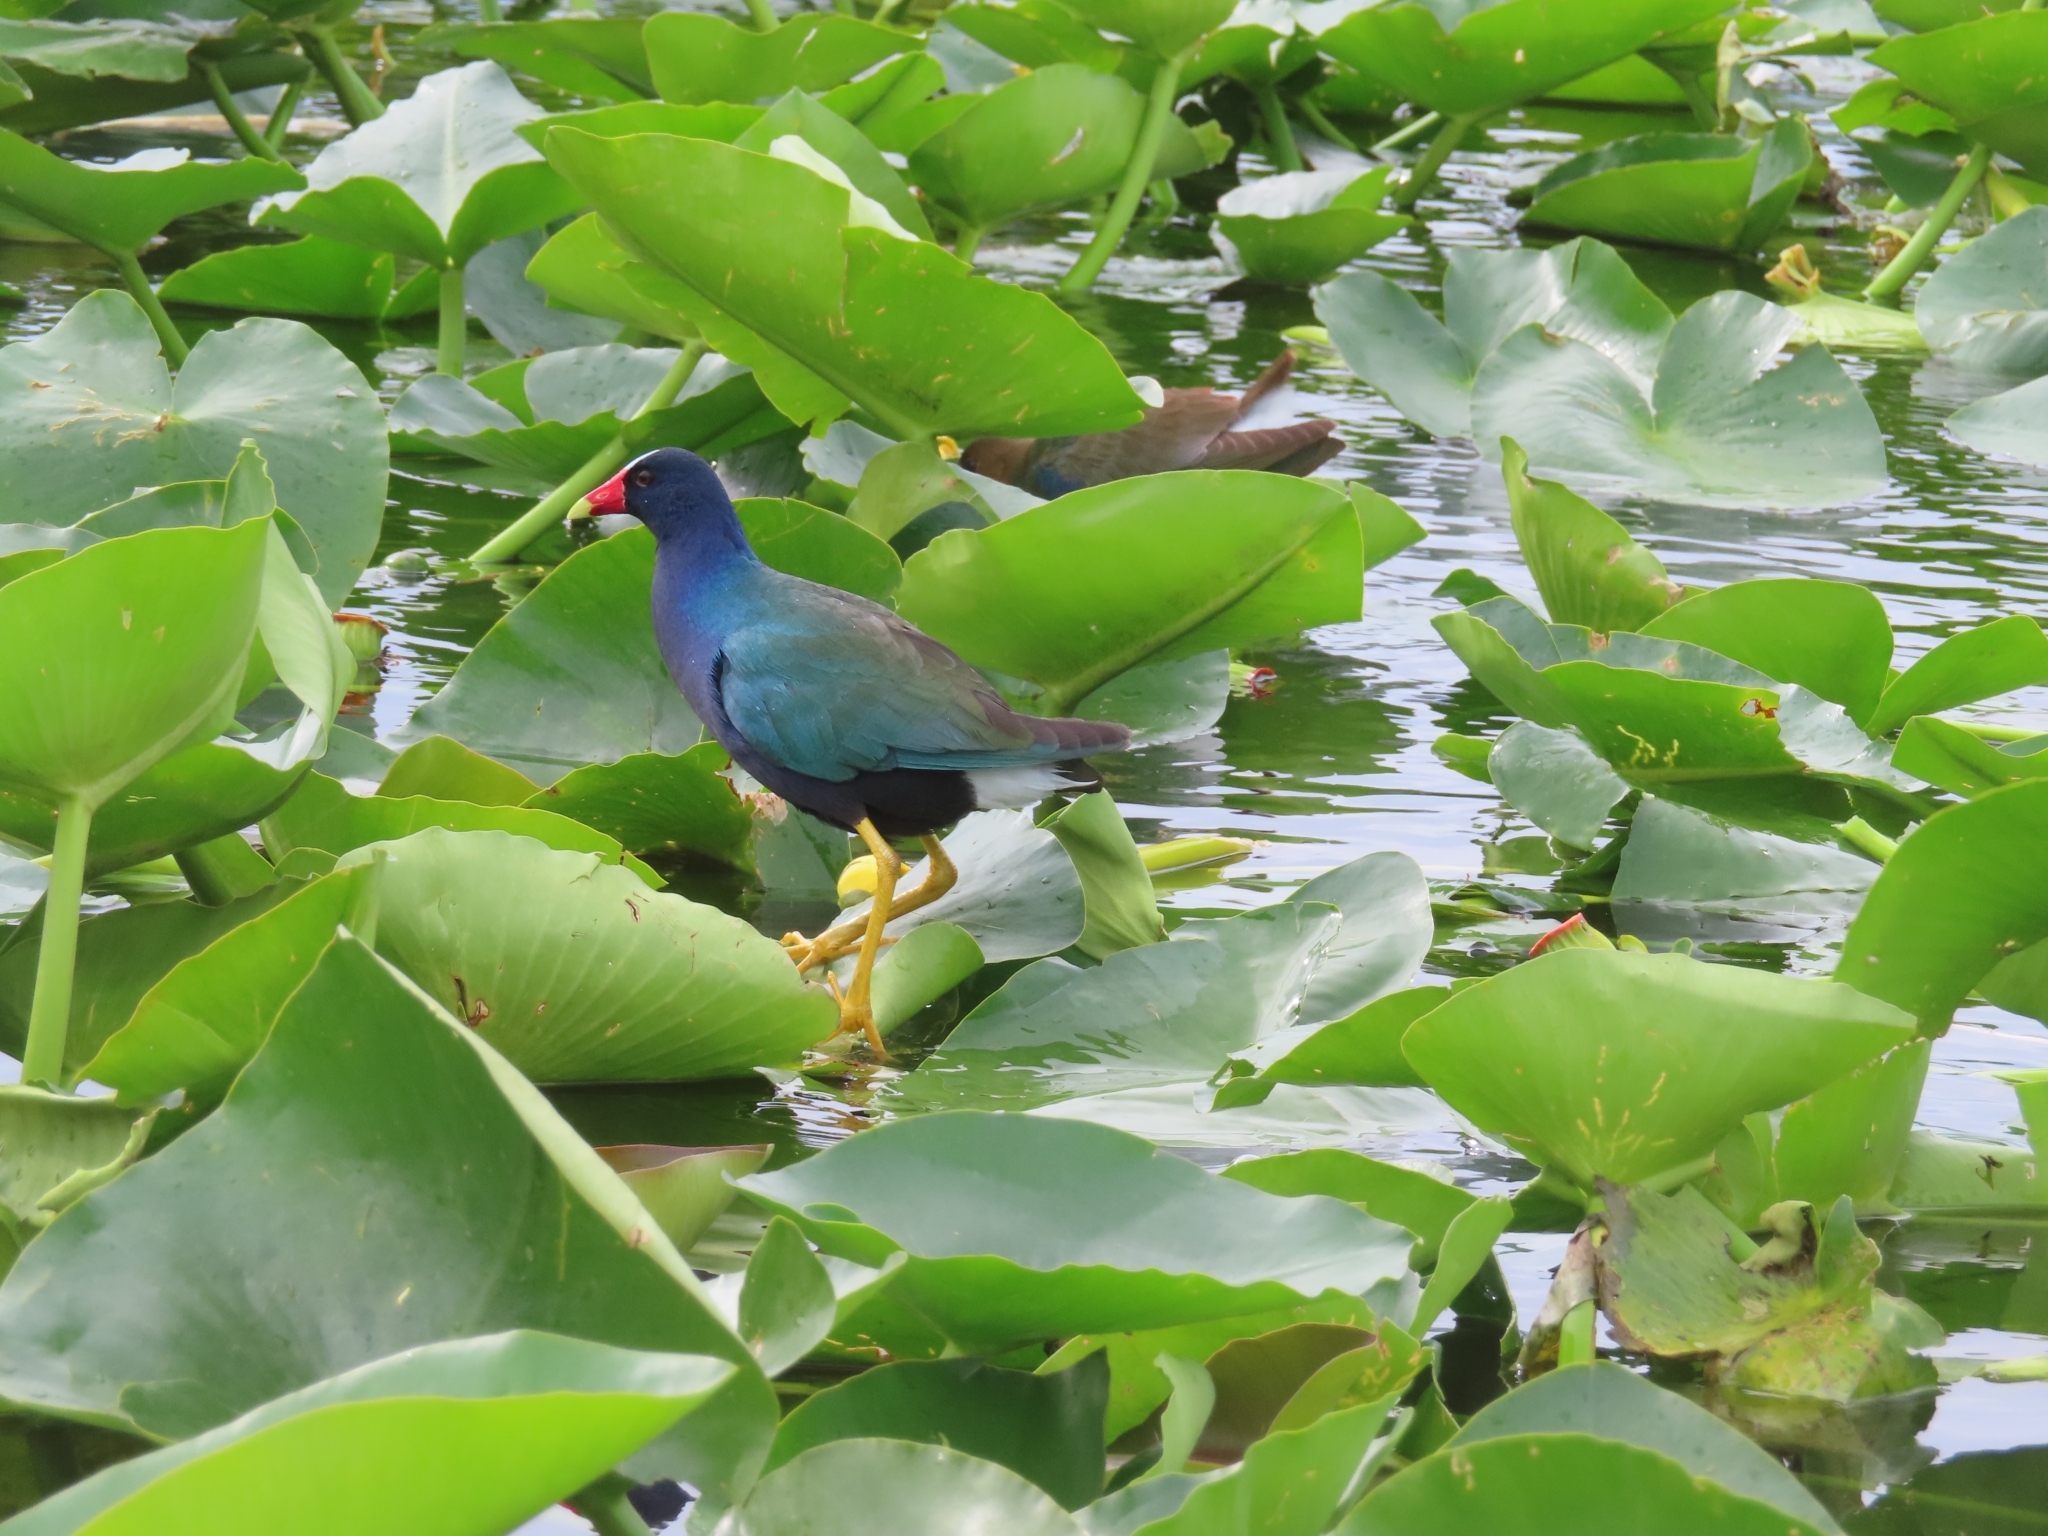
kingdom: Animalia
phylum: Chordata
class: Aves
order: Gruiformes
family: Rallidae
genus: Porphyrio
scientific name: Porphyrio martinica
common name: Purple gallinule
